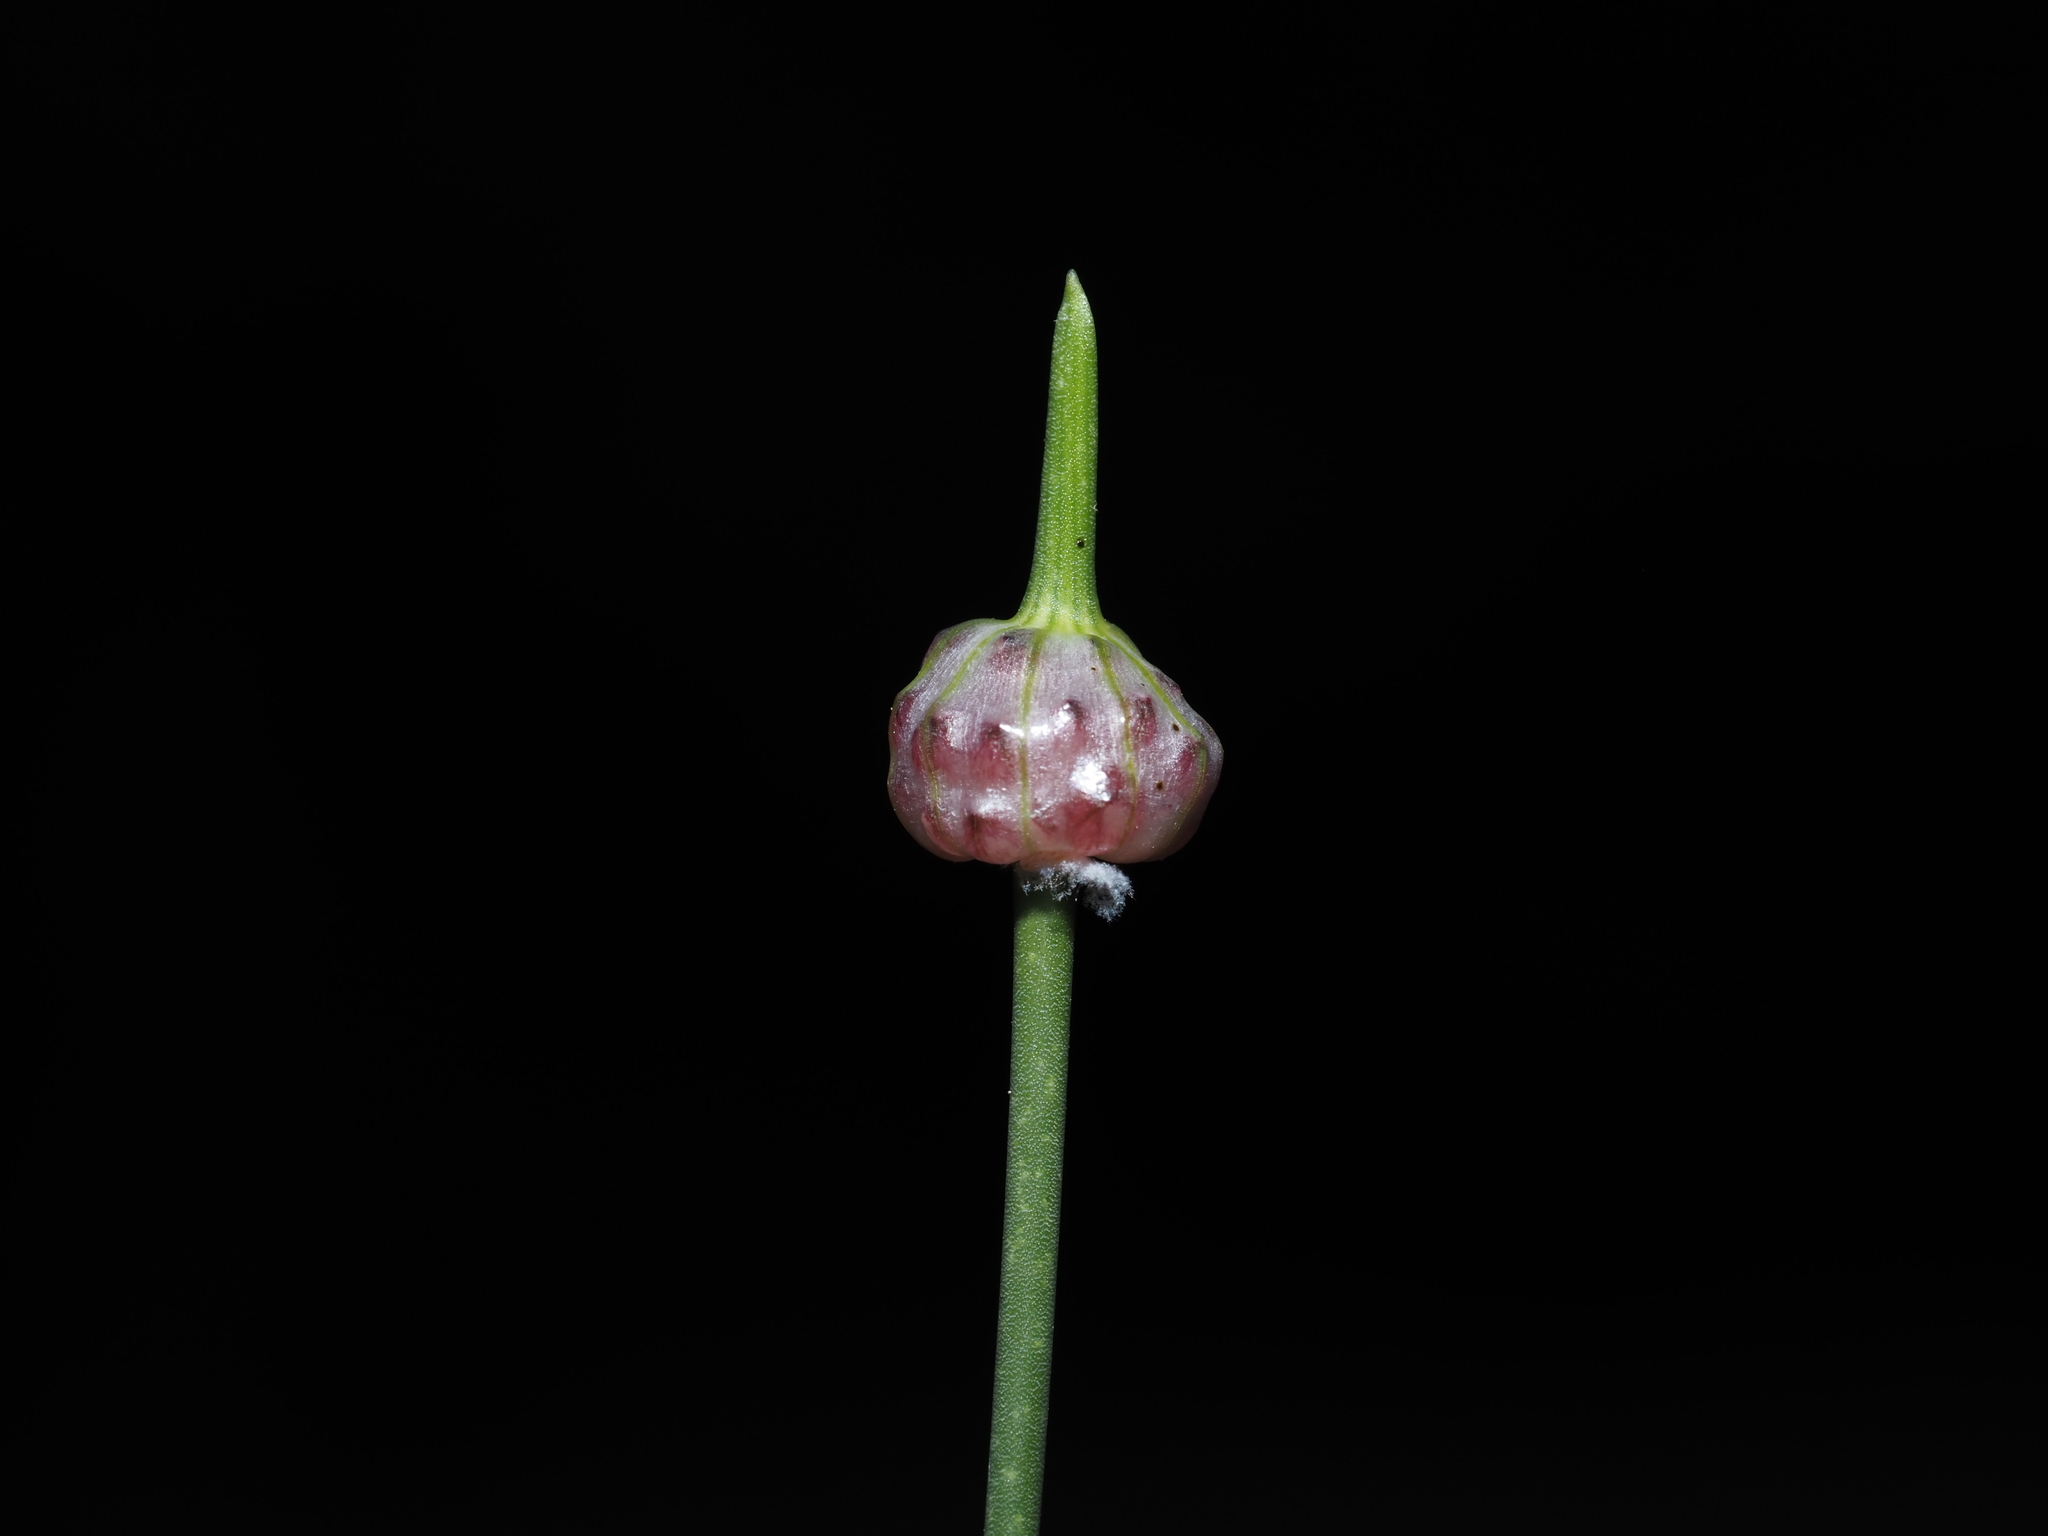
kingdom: Plantae
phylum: Tracheophyta
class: Liliopsida
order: Asparagales
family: Amaryllidaceae
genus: Allium
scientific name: Allium vineale
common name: Crow garlic
